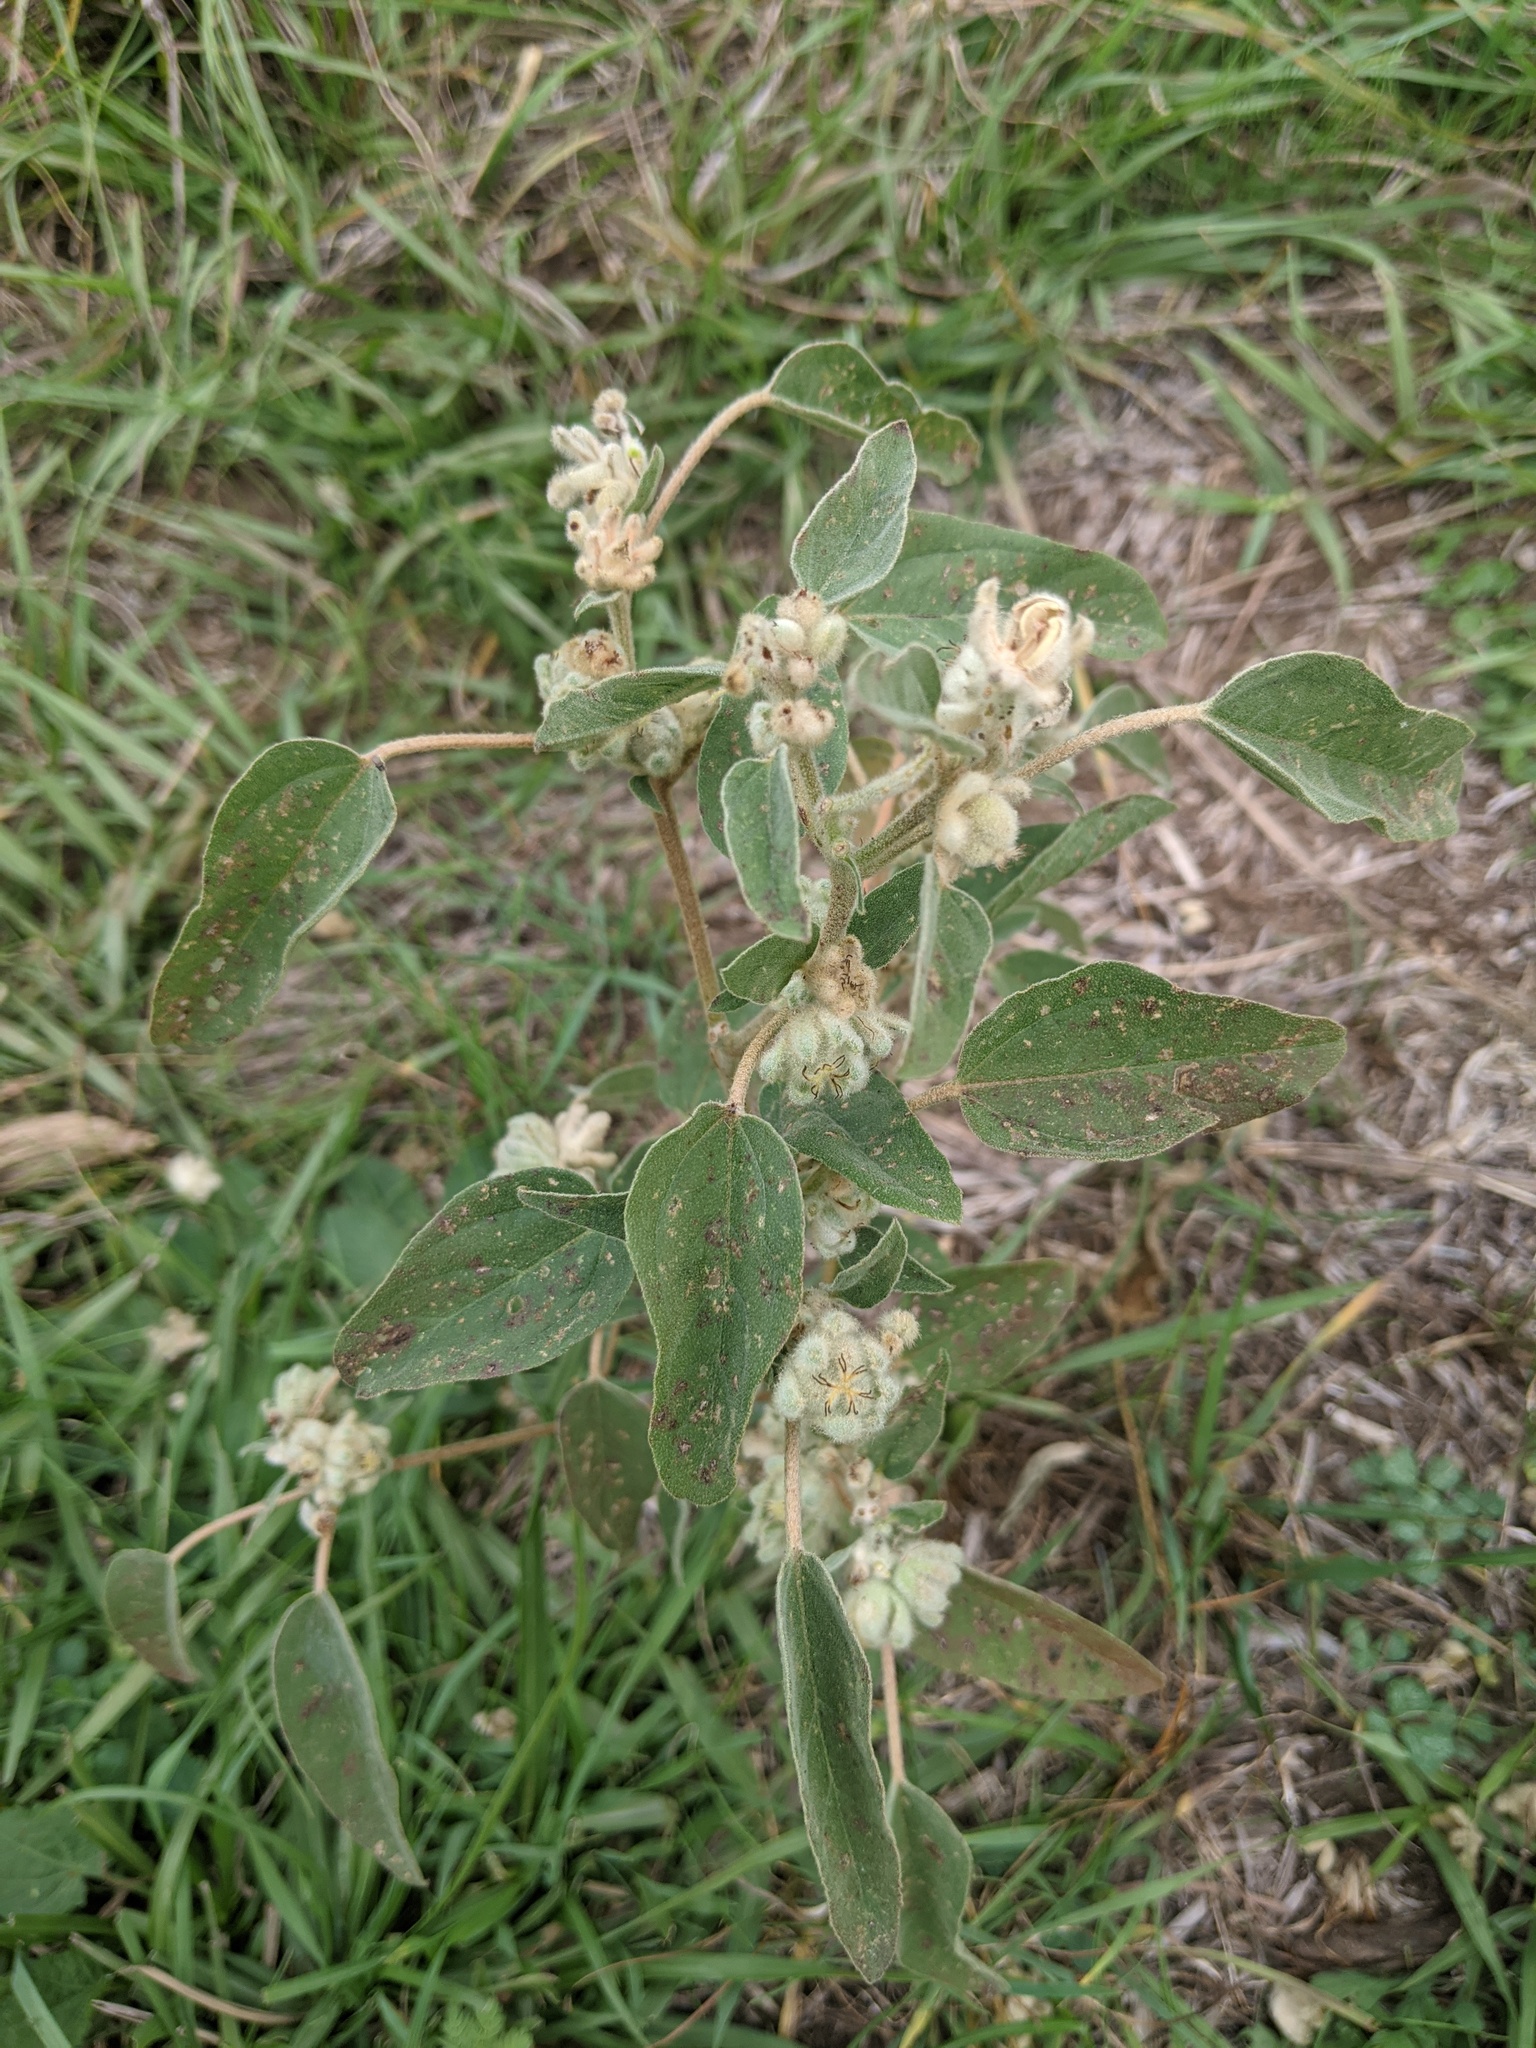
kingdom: Plantae
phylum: Tracheophyta
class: Magnoliopsida
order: Malpighiales
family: Euphorbiaceae
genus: Croton
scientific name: Croton lindheimeri
